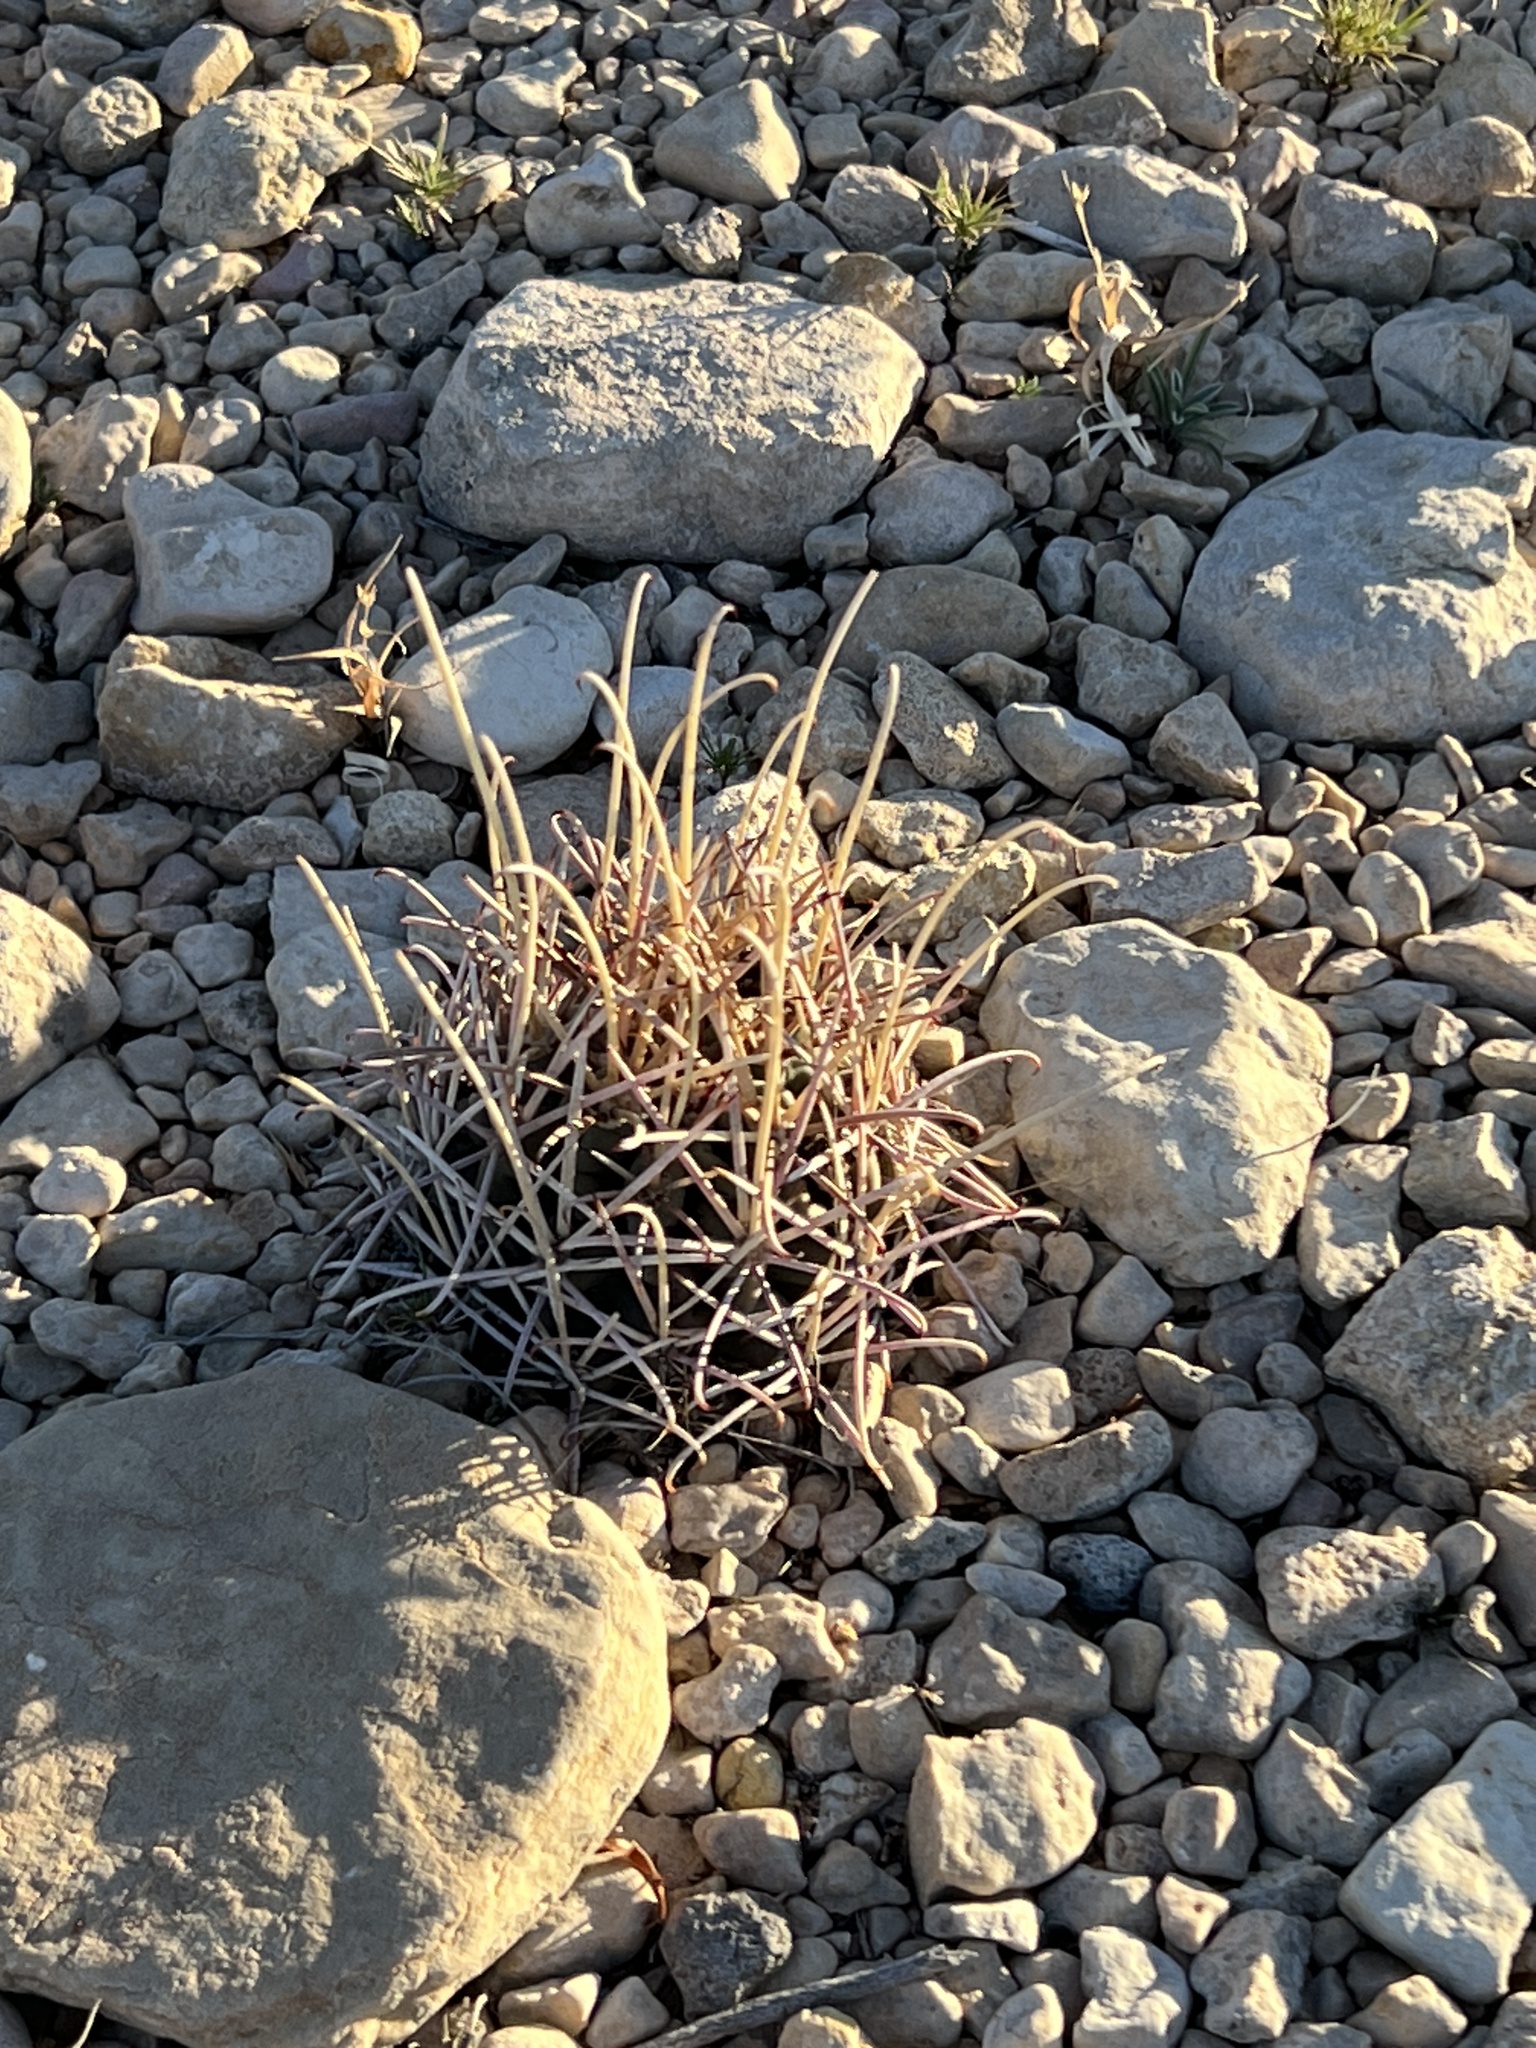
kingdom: Plantae
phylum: Tracheophyta
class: Magnoliopsida
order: Caryophyllales
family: Cactaceae
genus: Ferocactus
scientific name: Ferocactus uncinatus
